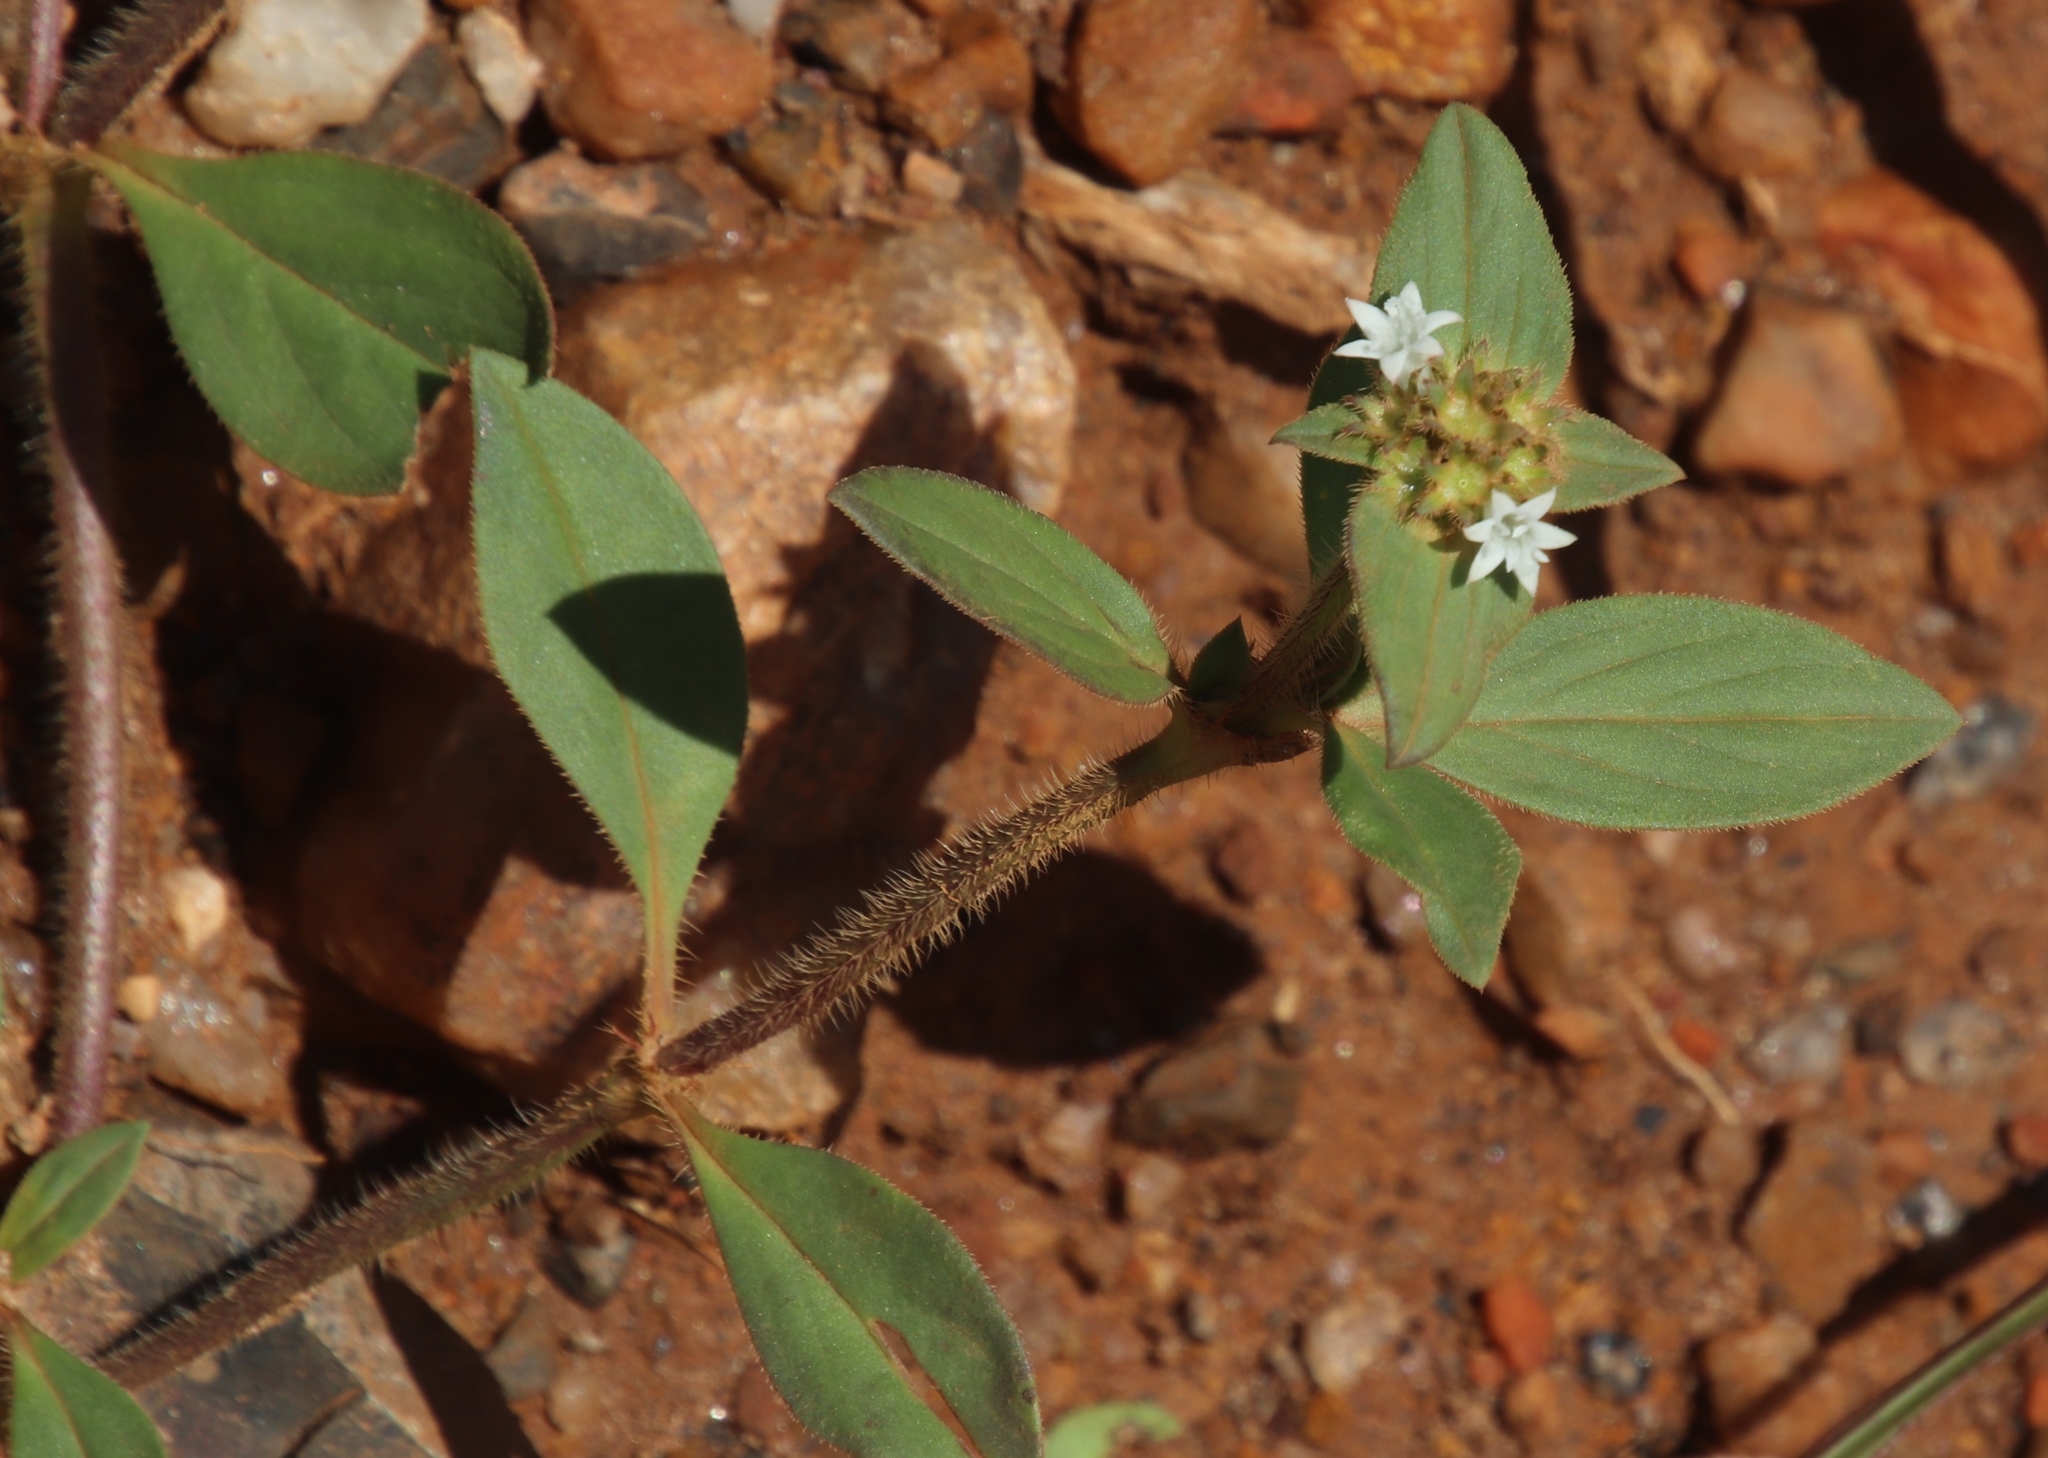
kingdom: Plantae
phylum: Tracheophyta
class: Magnoliopsida
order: Gentianales
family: Rubiaceae
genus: Richardia
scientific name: Richardia brasiliensis
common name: Tropical mexican clover
